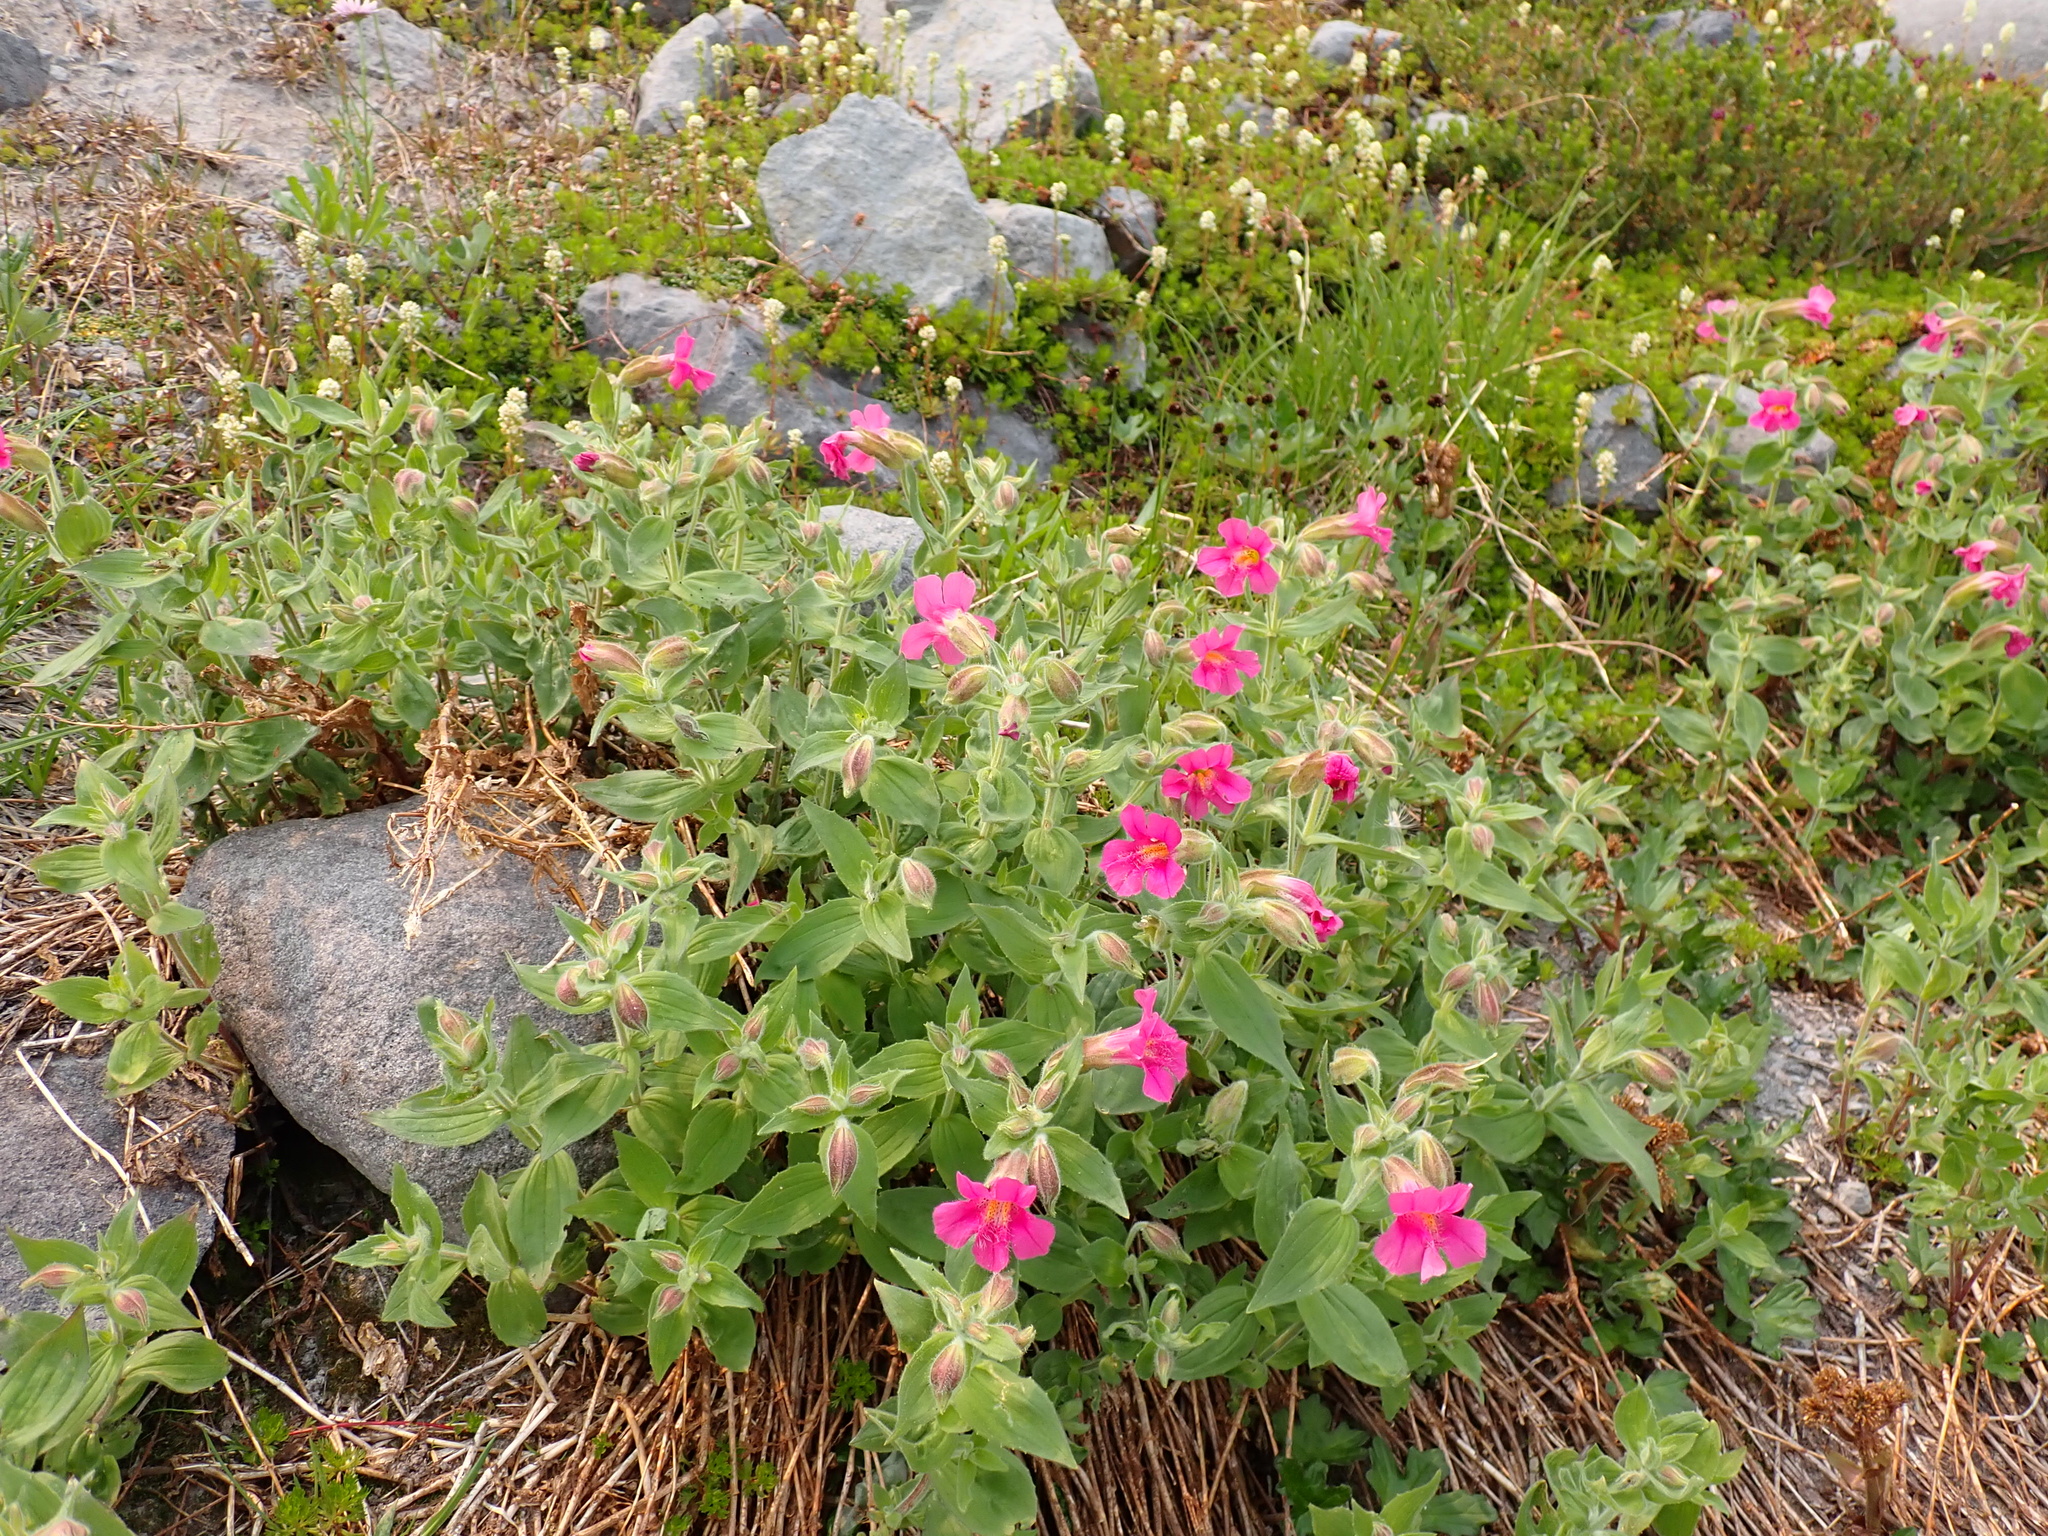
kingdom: Plantae
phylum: Tracheophyta
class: Magnoliopsida
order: Lamiales
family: Phrymaceae
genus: Erythranthe
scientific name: Erythranthe lewisii
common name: Lewis's monkey-flower
